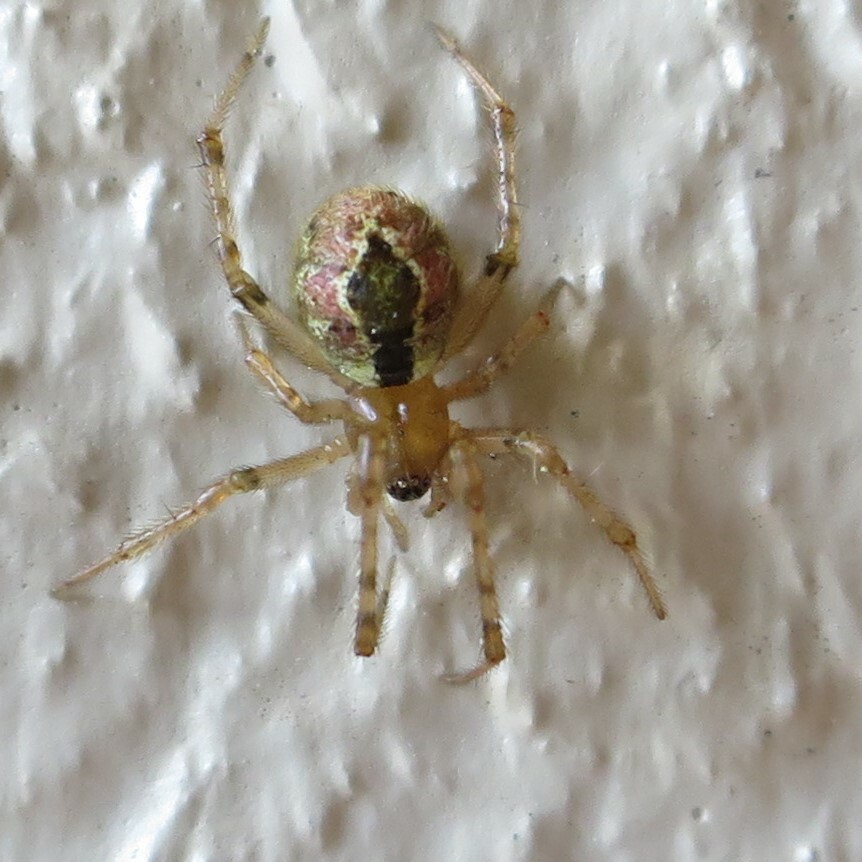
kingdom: Animalia
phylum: Arthropoda
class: Arachnida
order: Araneae
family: Theridiidae
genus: Cryptachaea
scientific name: Cryptachaea veruculata
